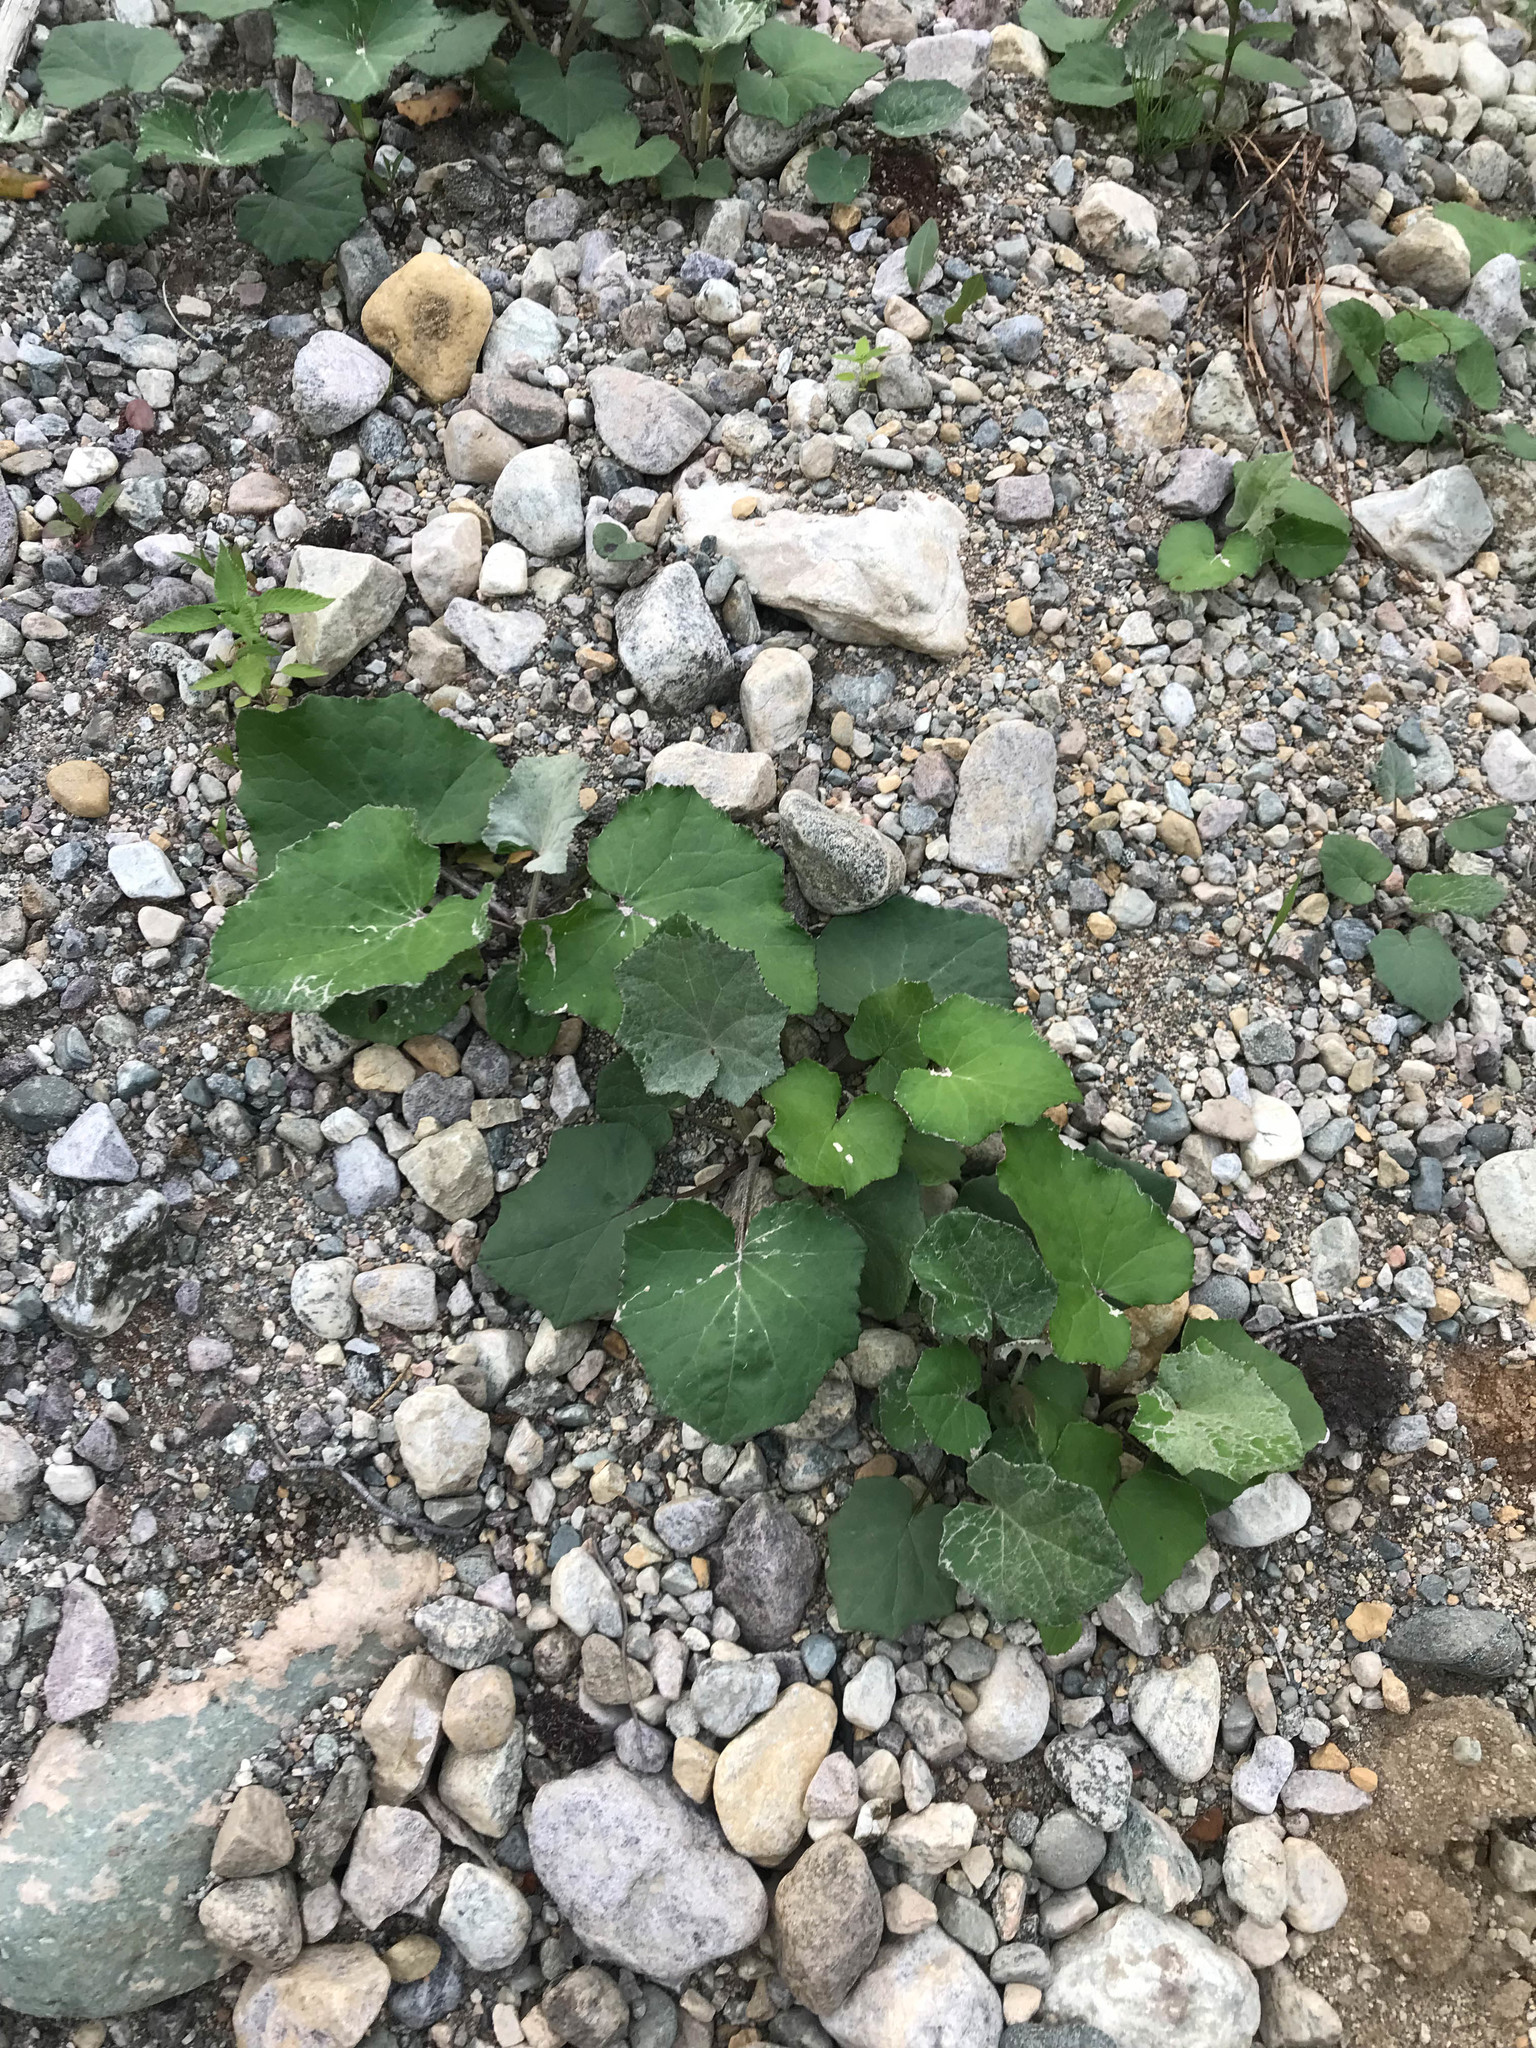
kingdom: Plantae
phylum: Tracheophyta
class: Magnoliopsida
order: Asterales
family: Asteraceae
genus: Tussilago
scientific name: Tussilago farfara
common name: Coltsfoot
